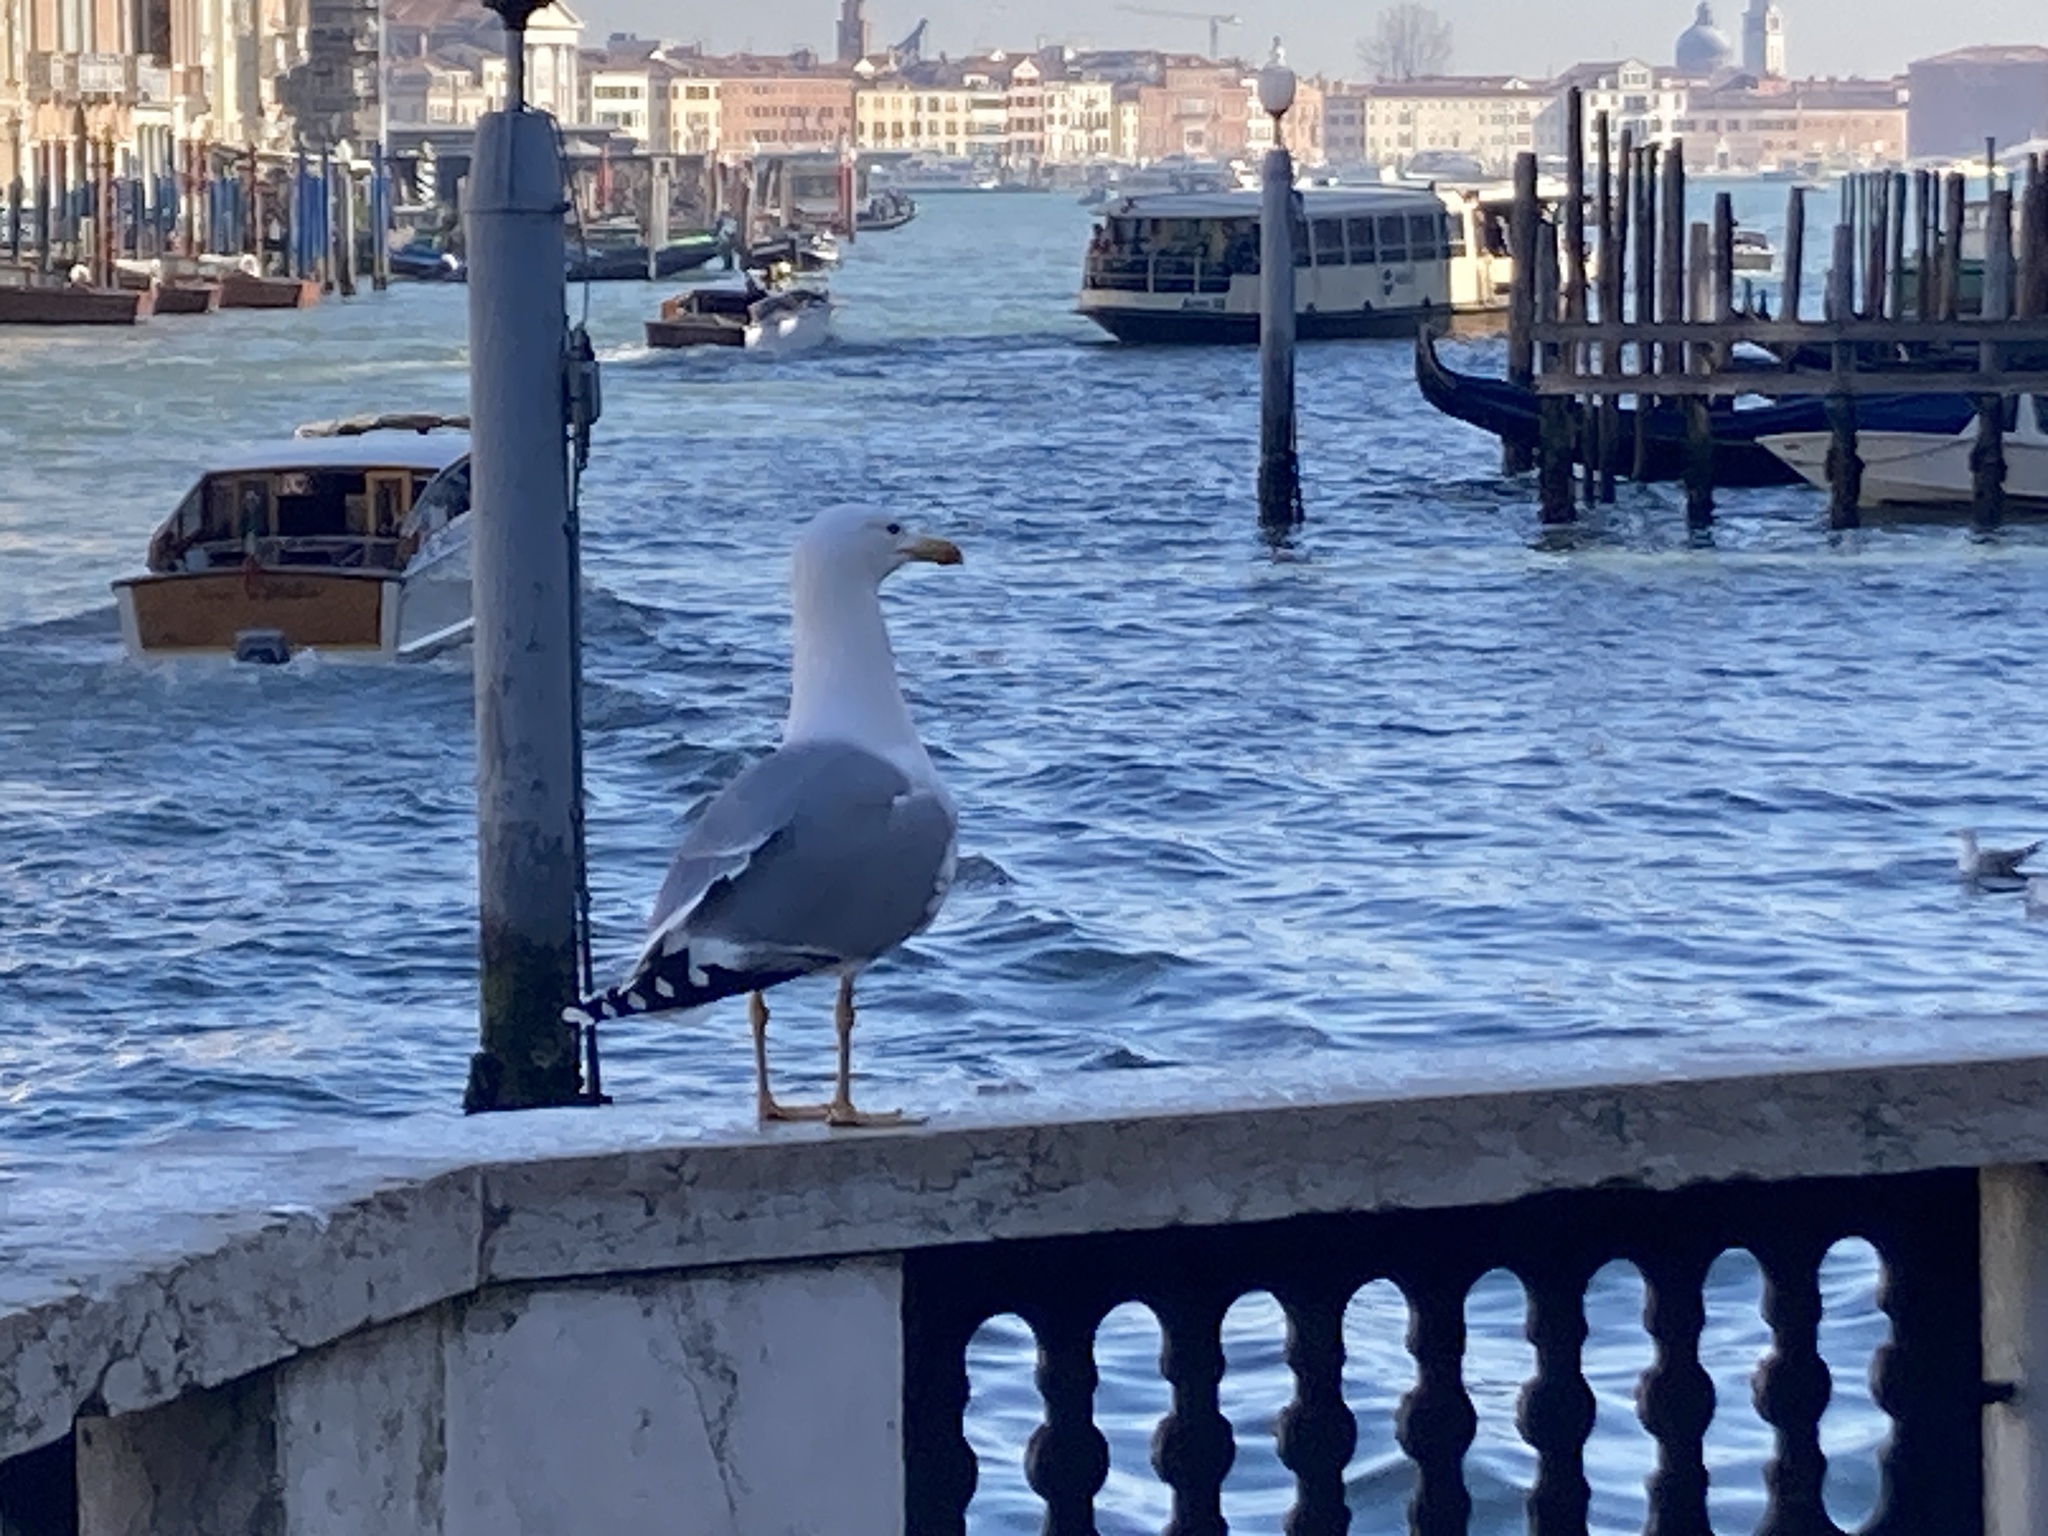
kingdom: Animalia
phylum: Chordata
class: Aves
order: Charadriiformes
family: Laridae
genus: Larus
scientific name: Larus michahellis
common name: Yellow-legged gull
